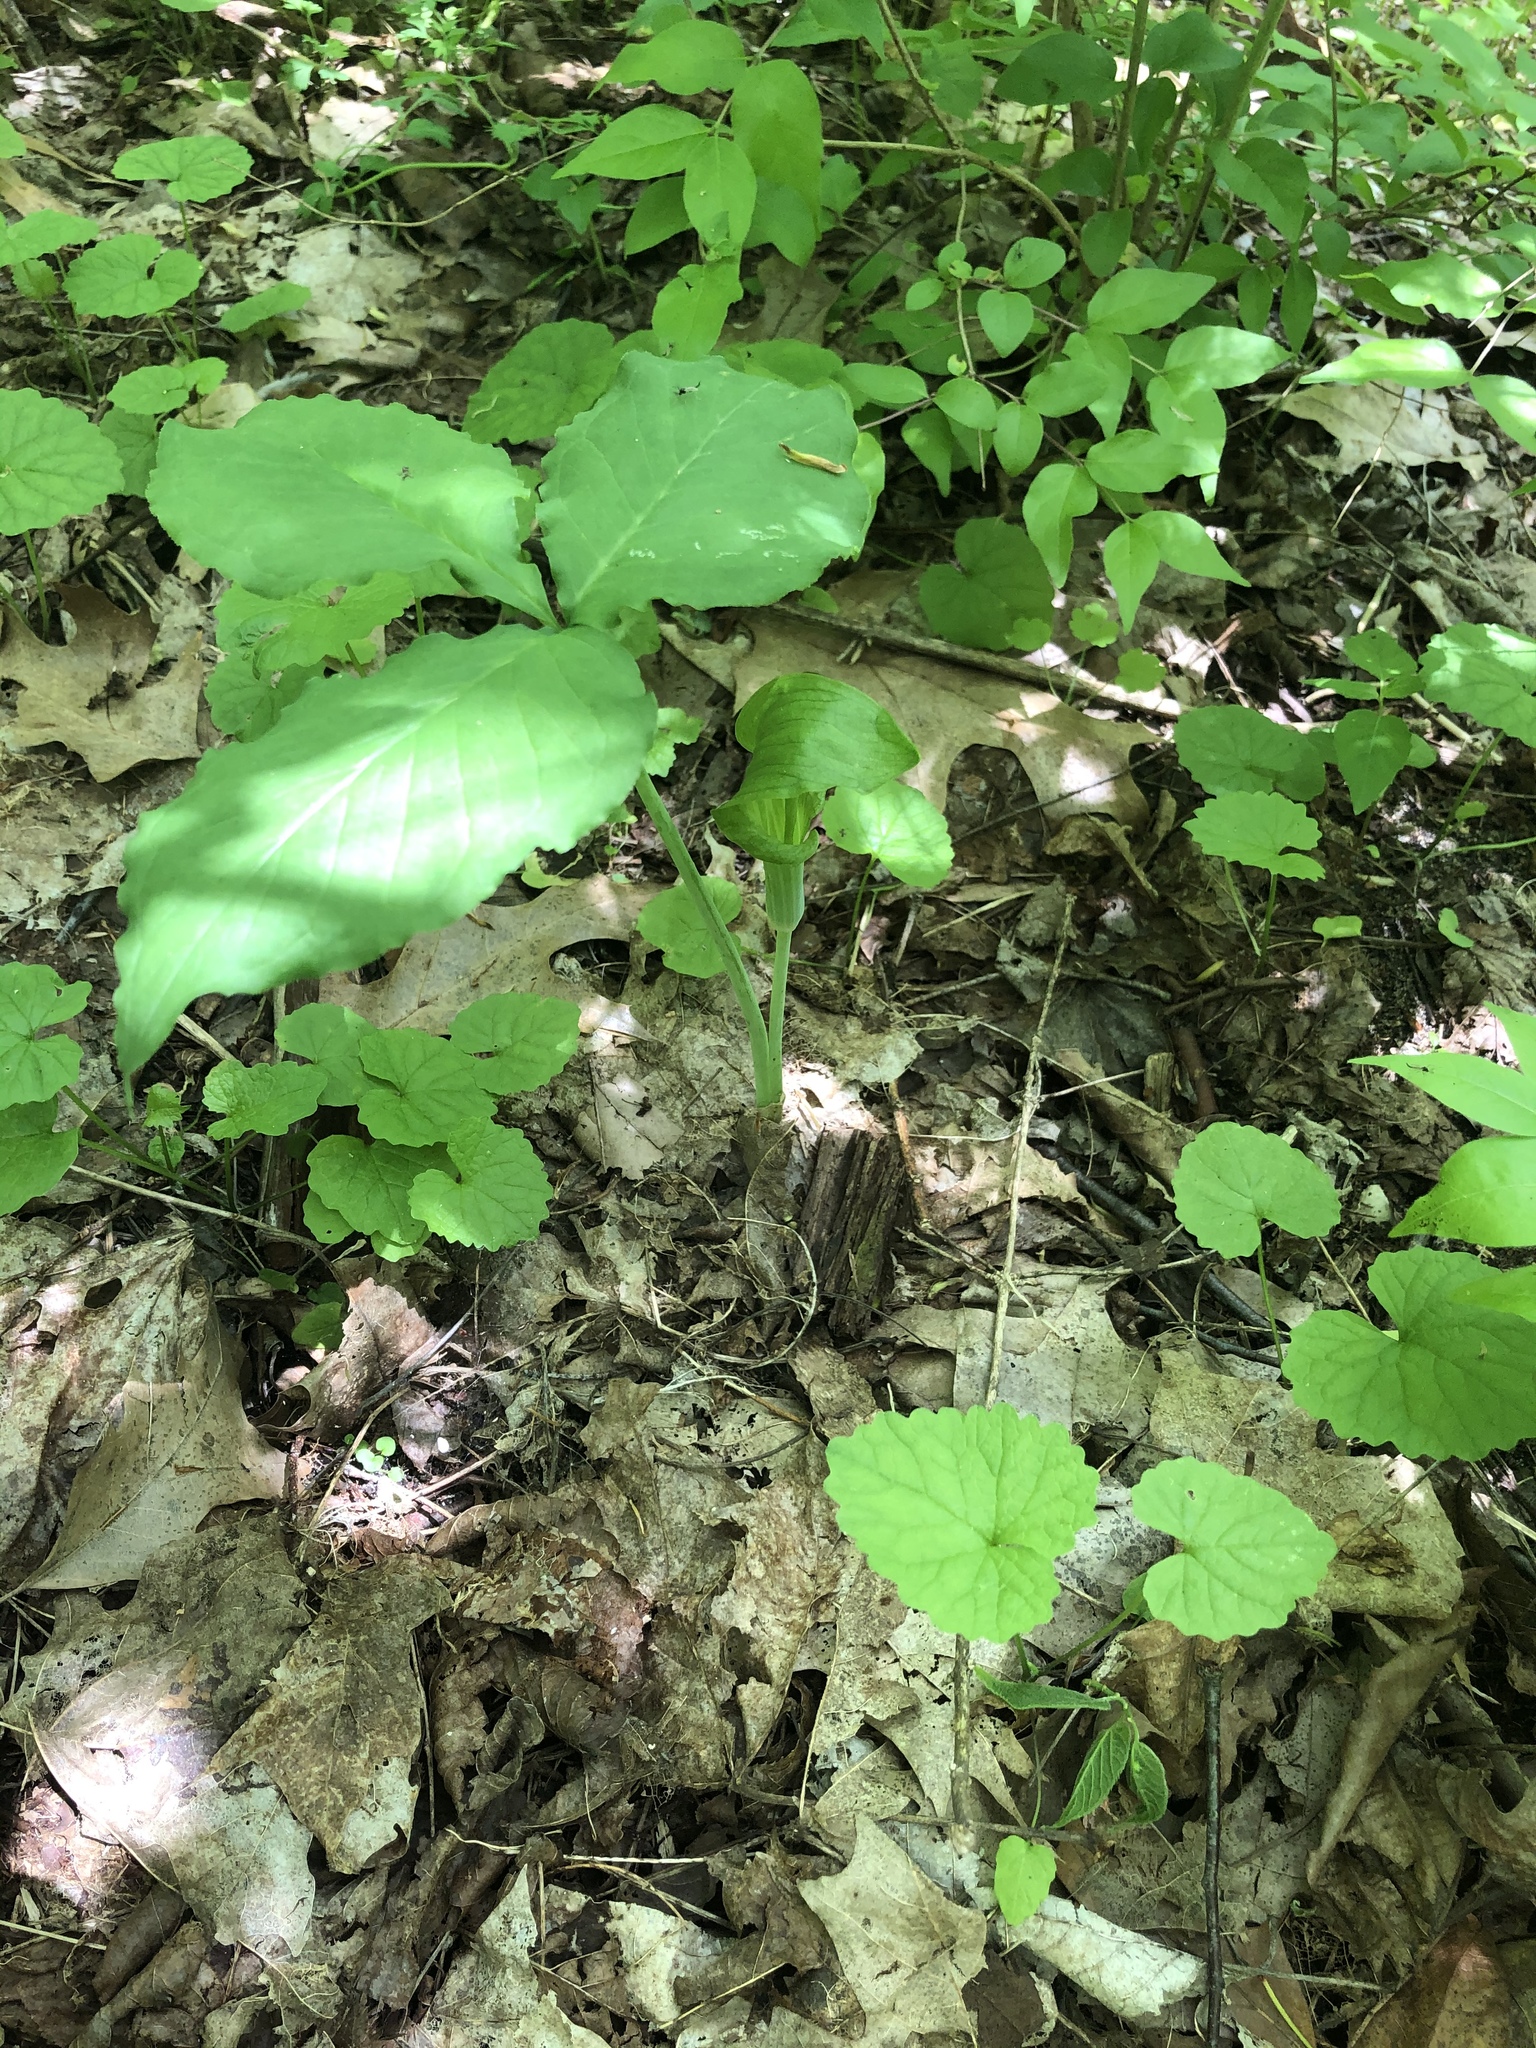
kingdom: Plantae
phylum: Tracheophyta
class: Liliopsida
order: Alismatales
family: Araceae
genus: Arisaema
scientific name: Arisaema triphyllum
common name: Jack-in-the-pulpit
